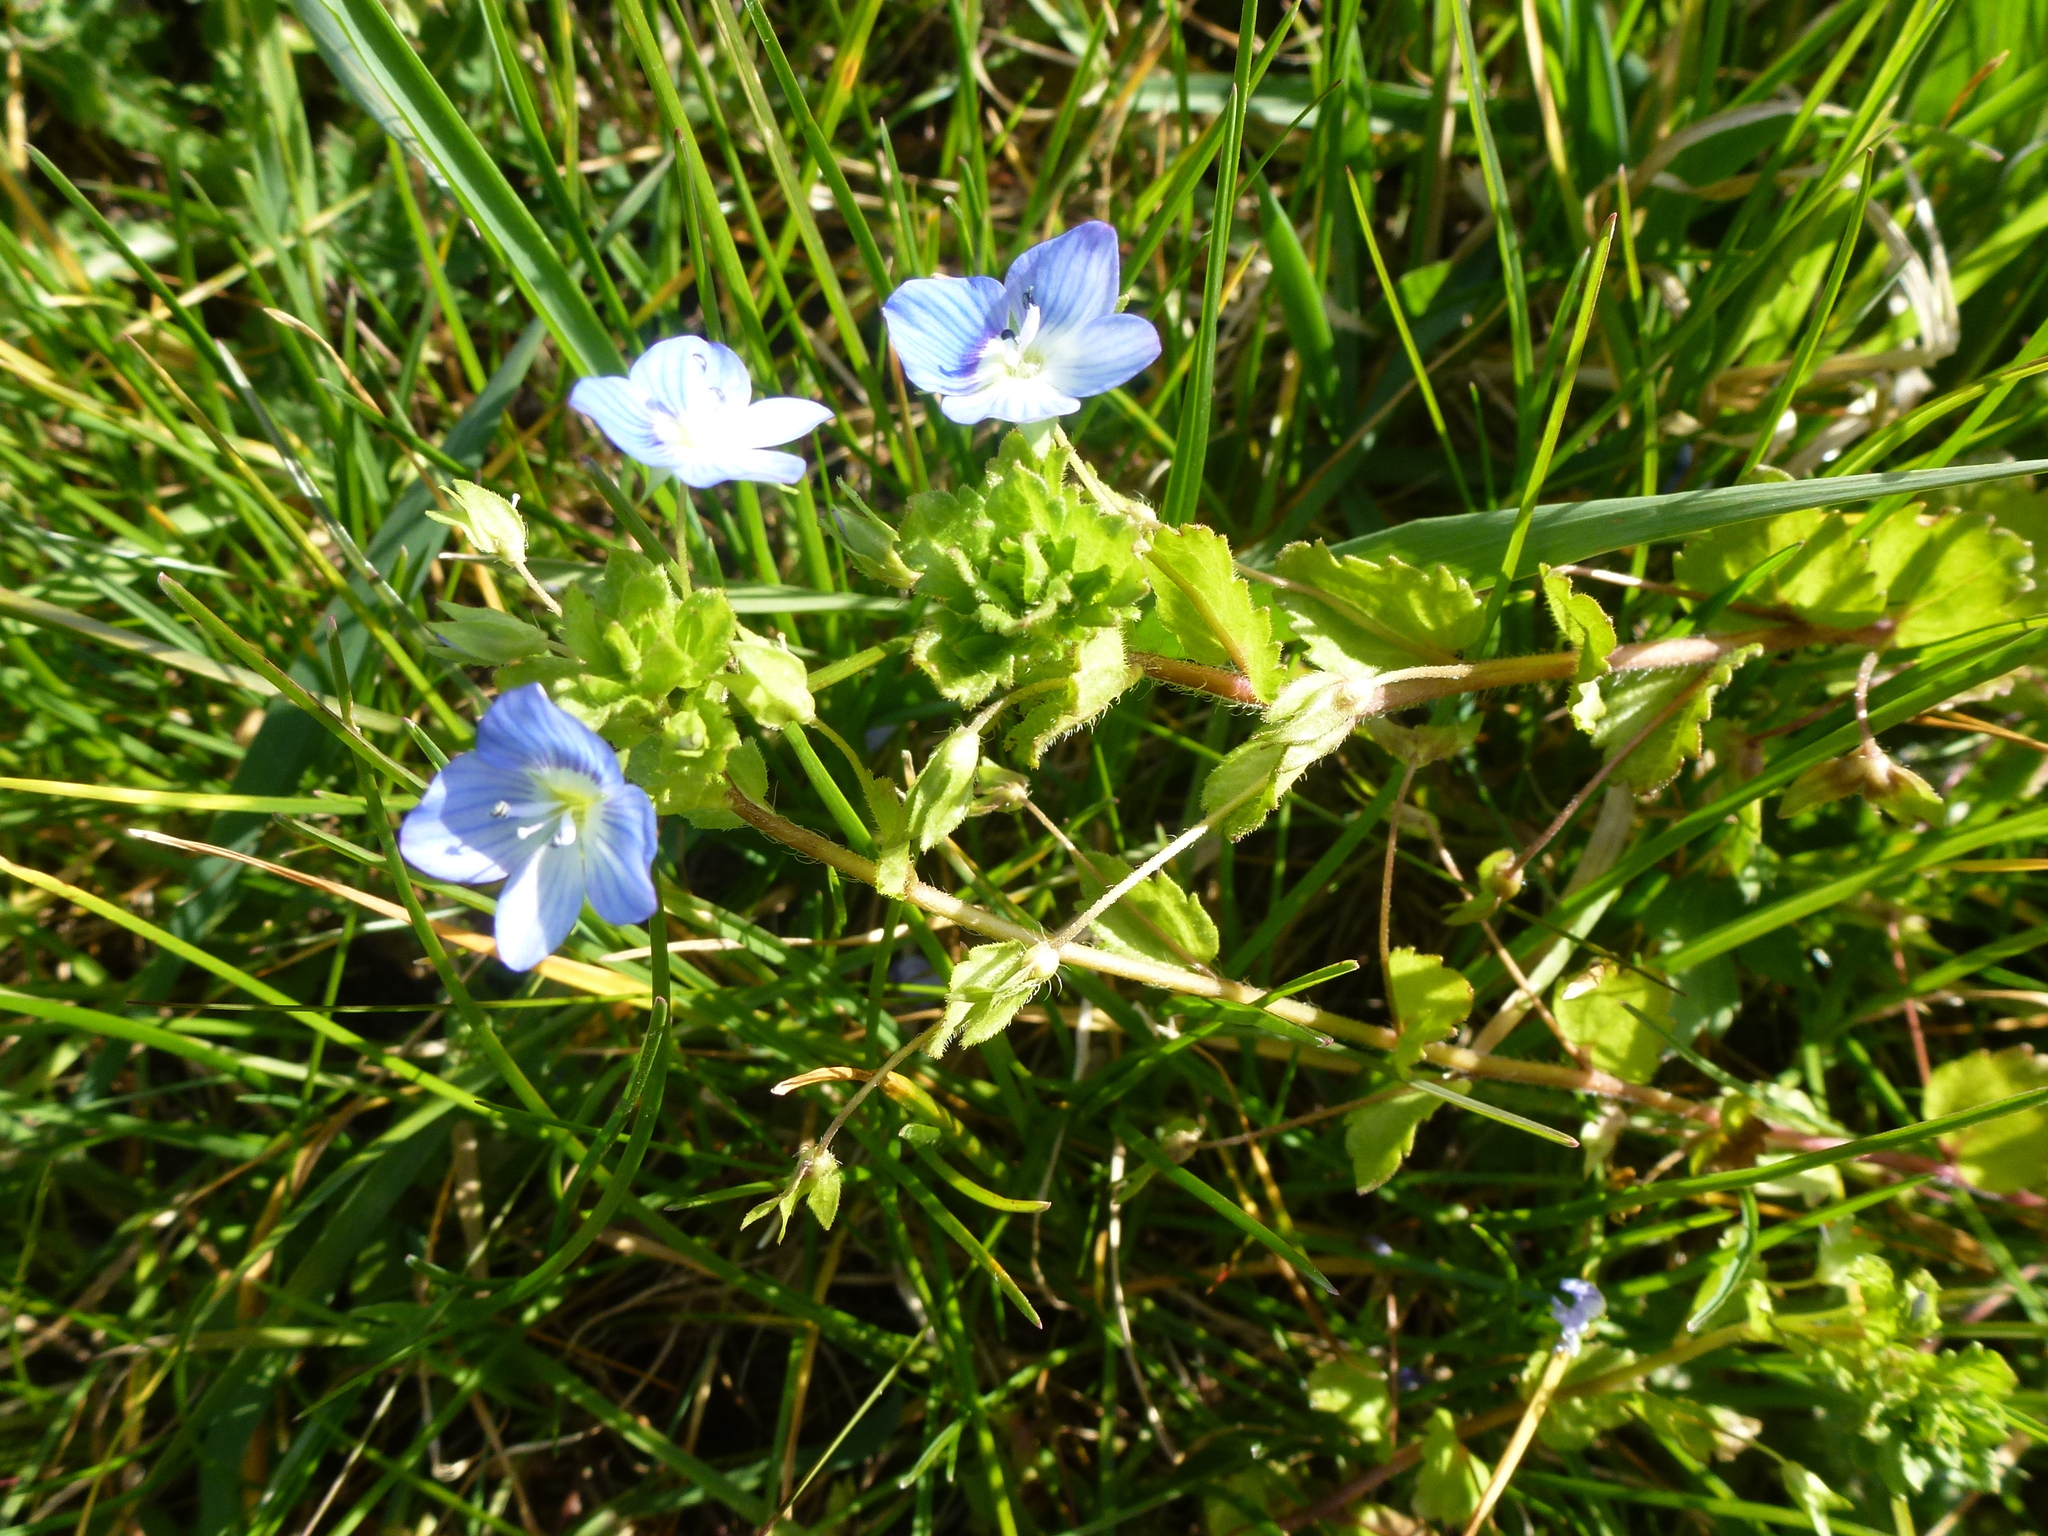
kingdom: Plantae
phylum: Tracheophyta
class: Magnoliopsida
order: Lamiales
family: Plantaginaceae
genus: Veronica
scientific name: Veronica persica
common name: Common field-speedwell
